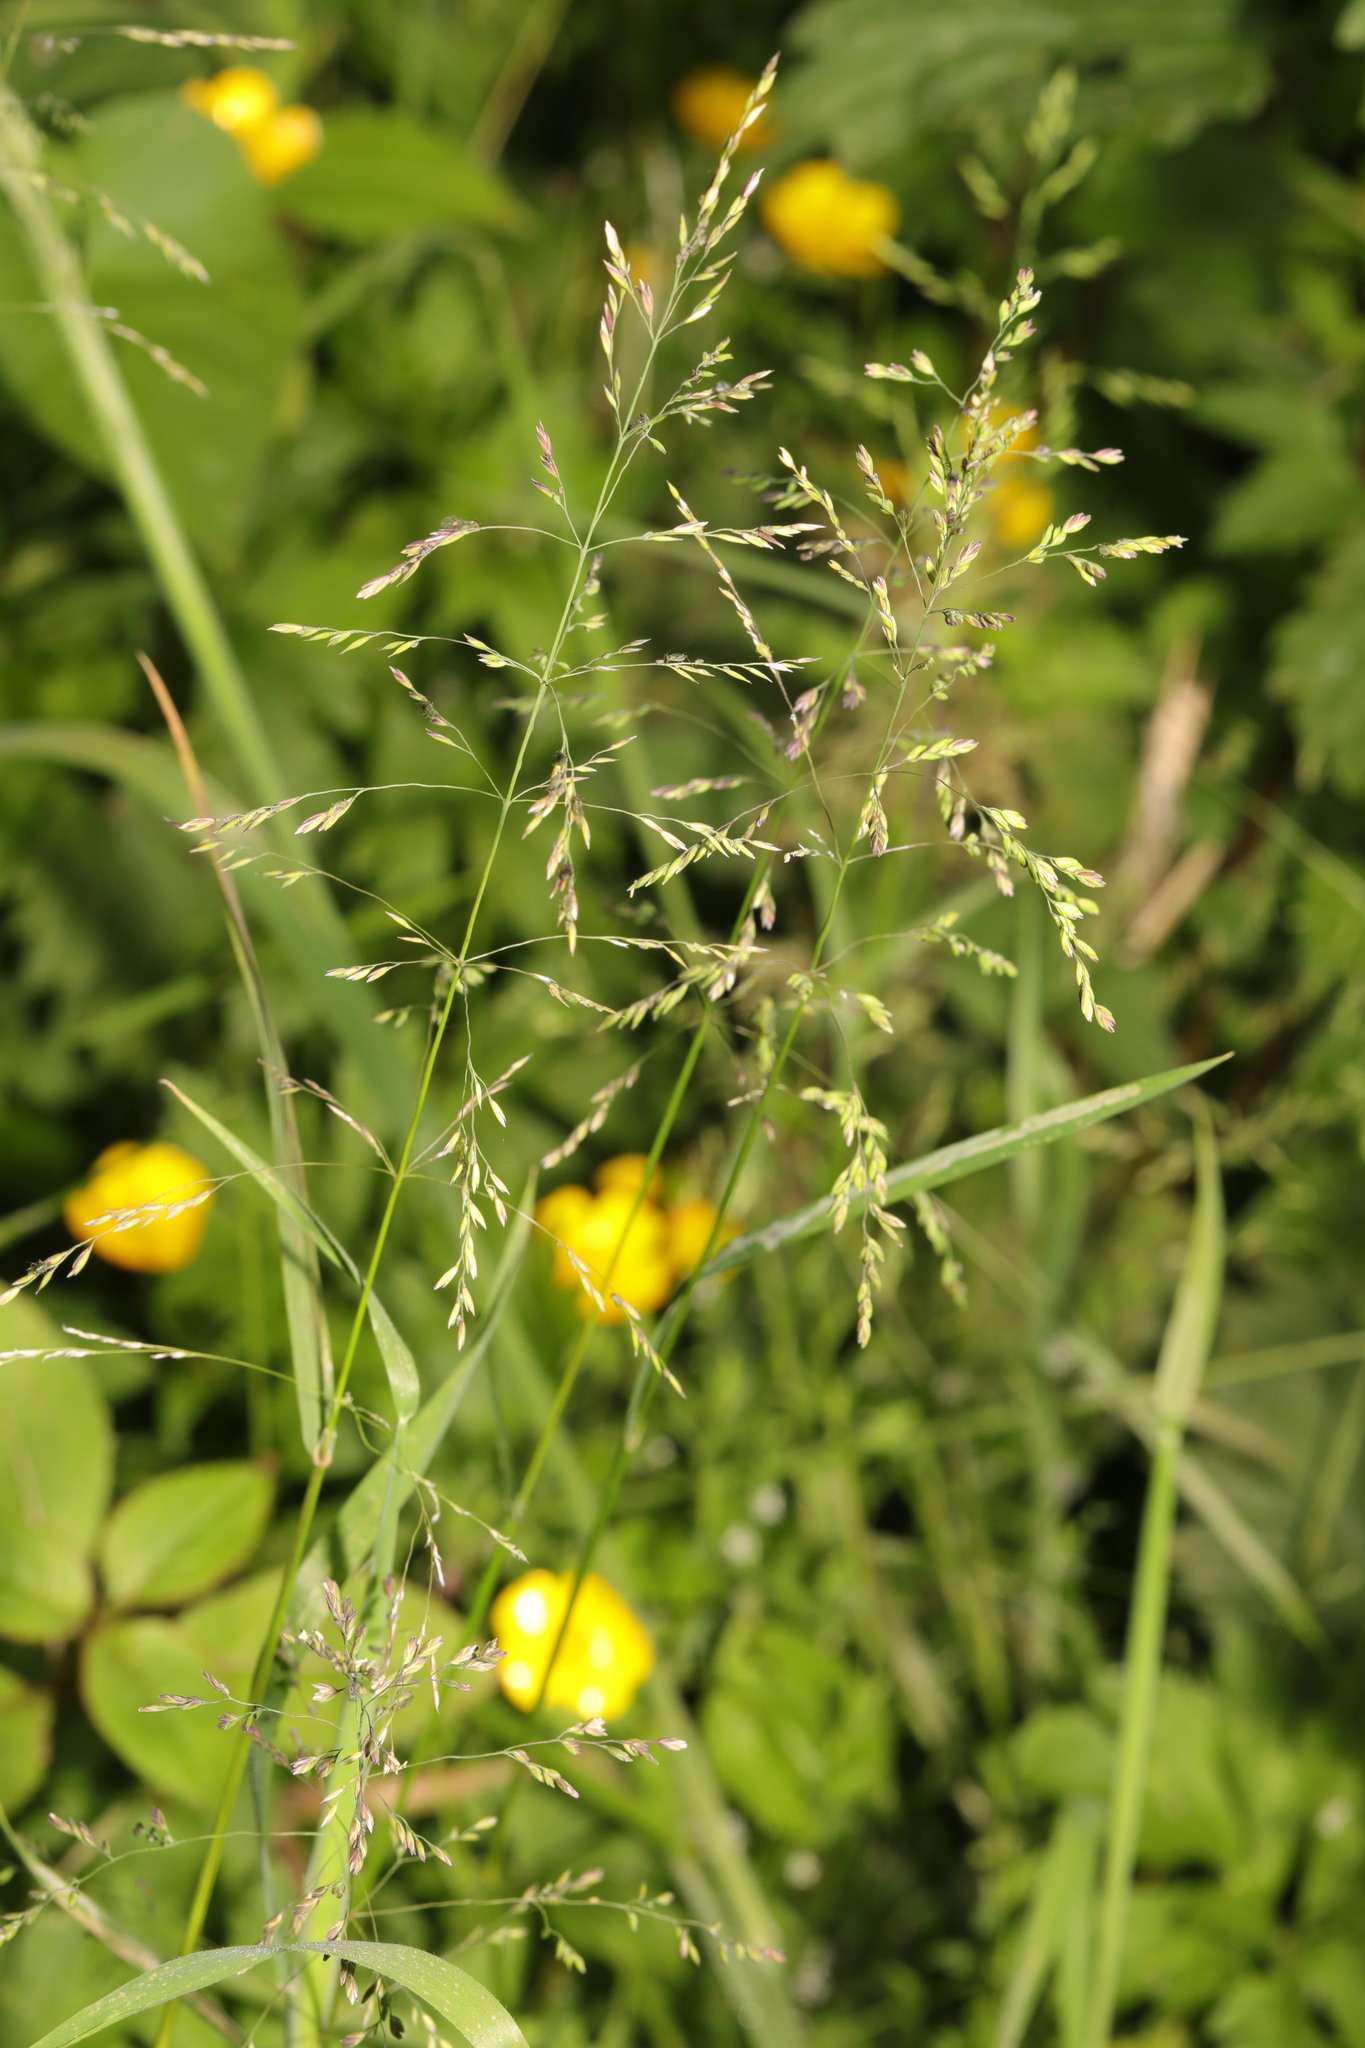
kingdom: Plantae
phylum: Tracheophyta
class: Liliopsida
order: Poales
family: Poaceae
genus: Poa
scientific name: Poa trivialis
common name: Rough bluegrass
